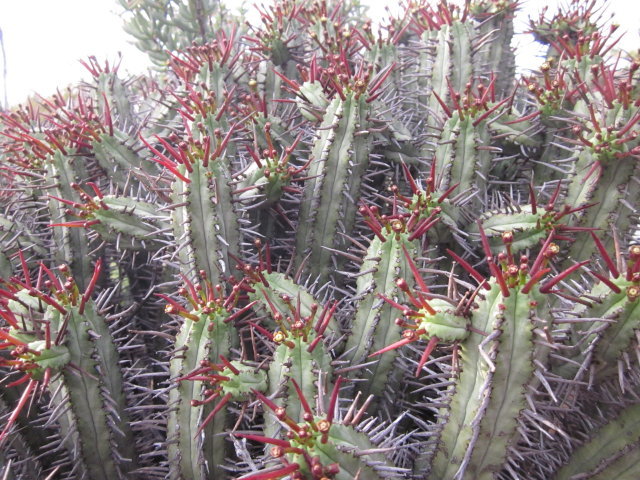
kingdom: Plantae
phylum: Tracheophyta
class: Magnoliopsida
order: Malpighiales
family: Euphorbiaceae
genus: Euphorbia
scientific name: Euphorbia heptagona
